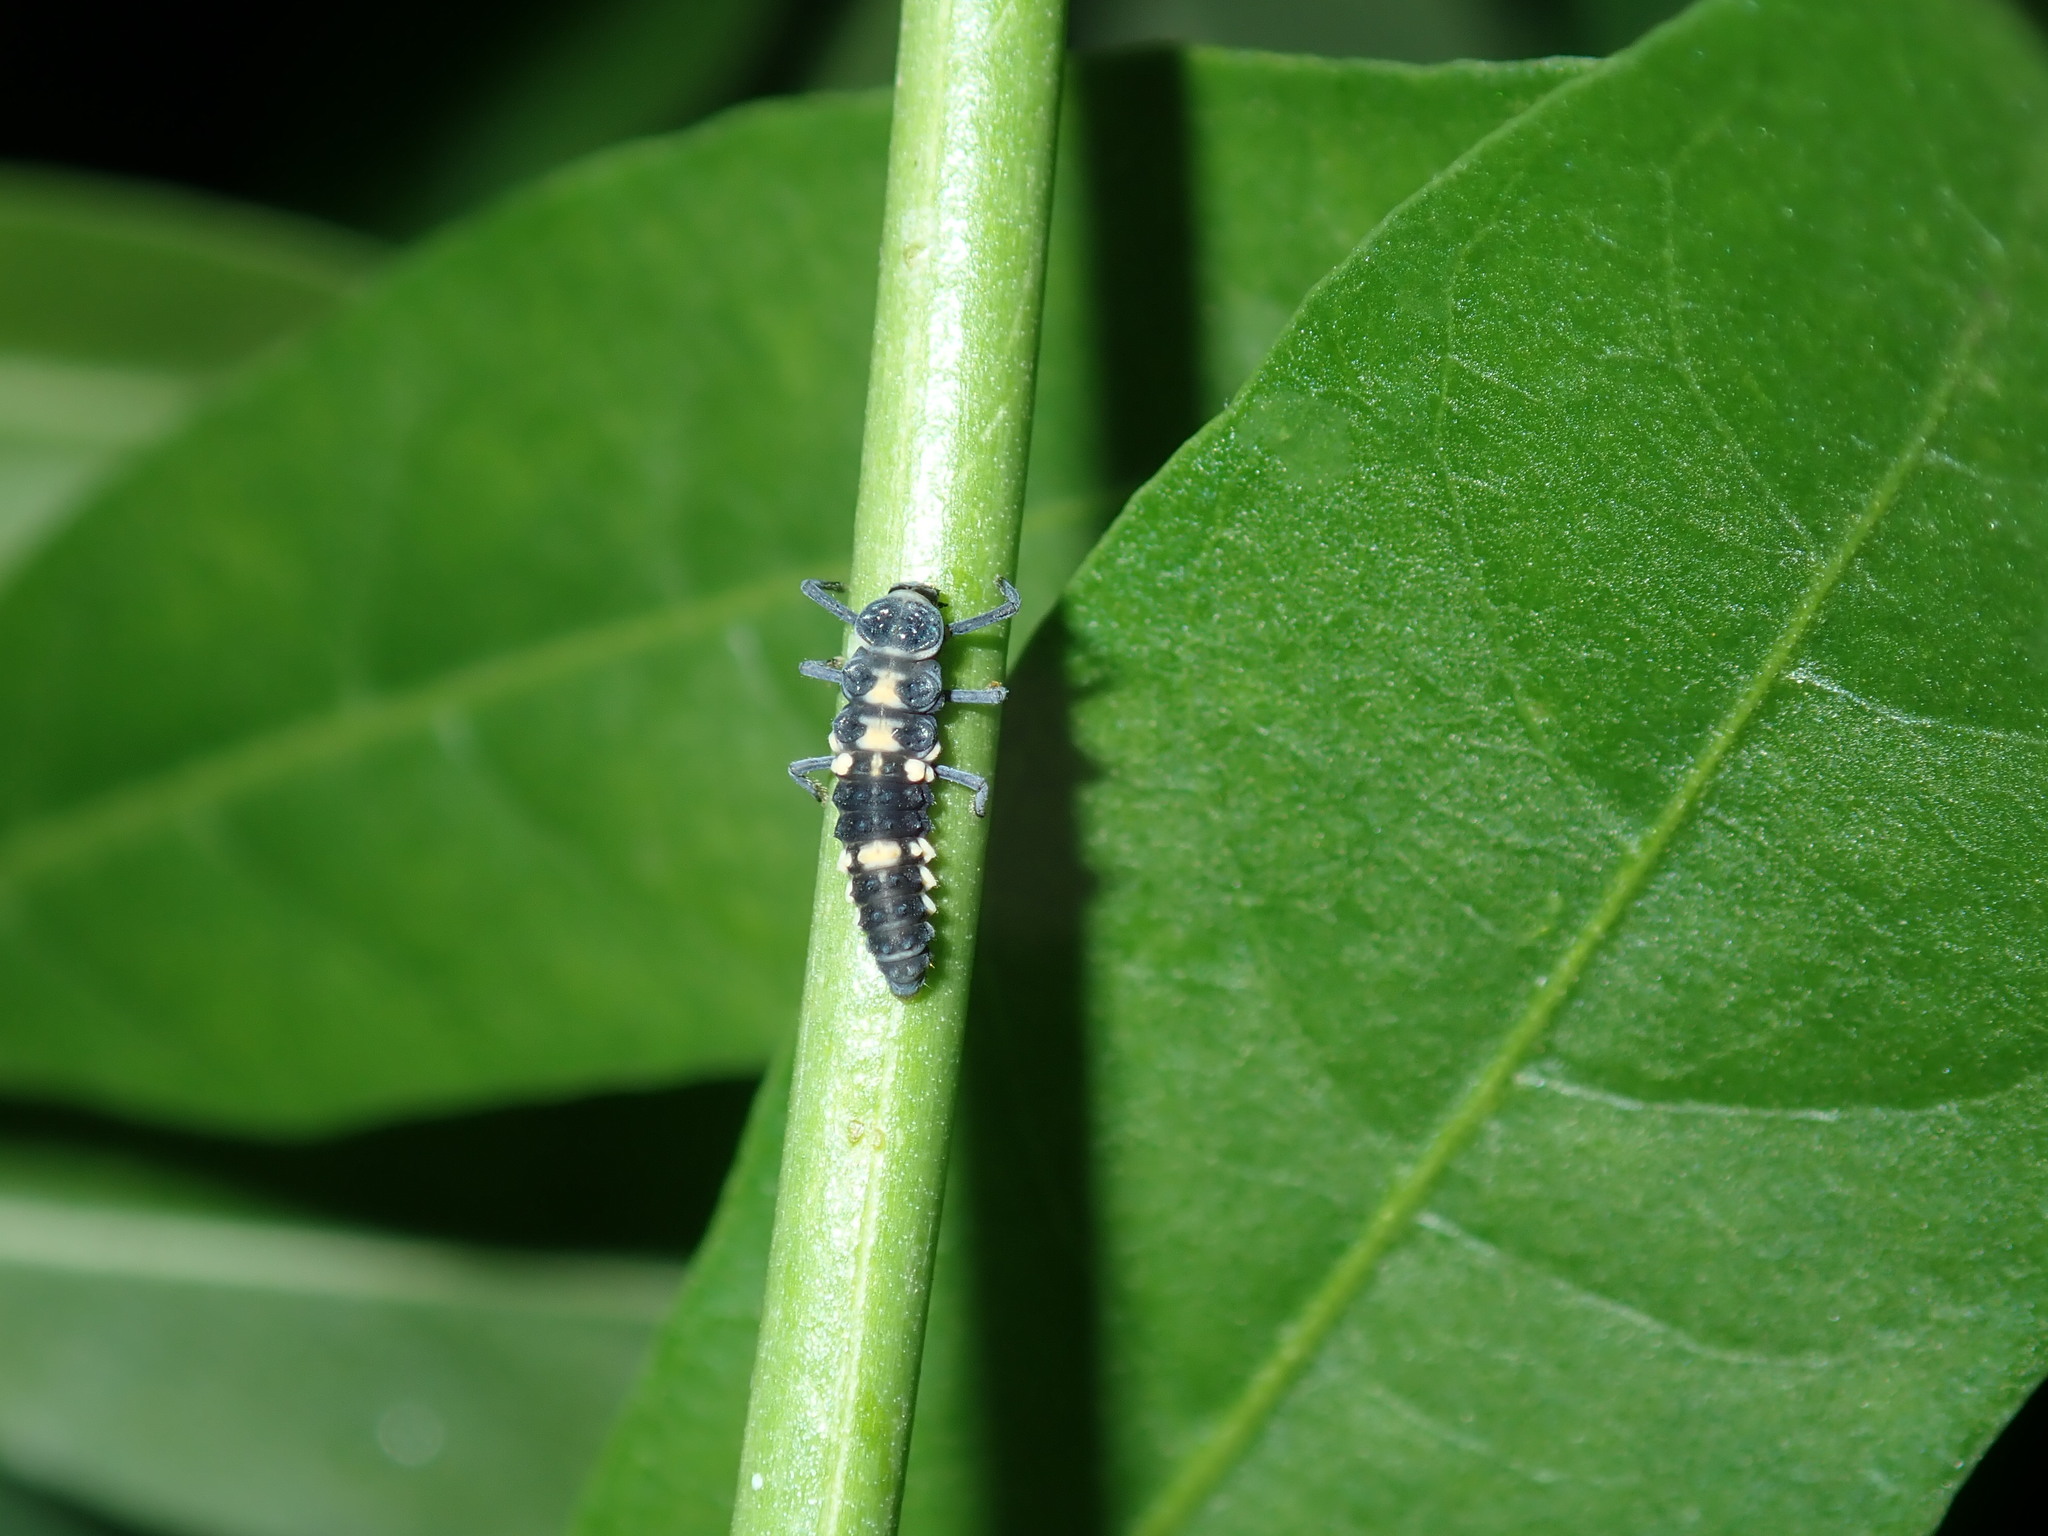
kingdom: Animalia
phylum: Arthropoda
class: Insecta
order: Coleoptera
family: Coccinellidae
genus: Coelophora
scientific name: Coelophora inaequalis
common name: Common australian lady beetle
